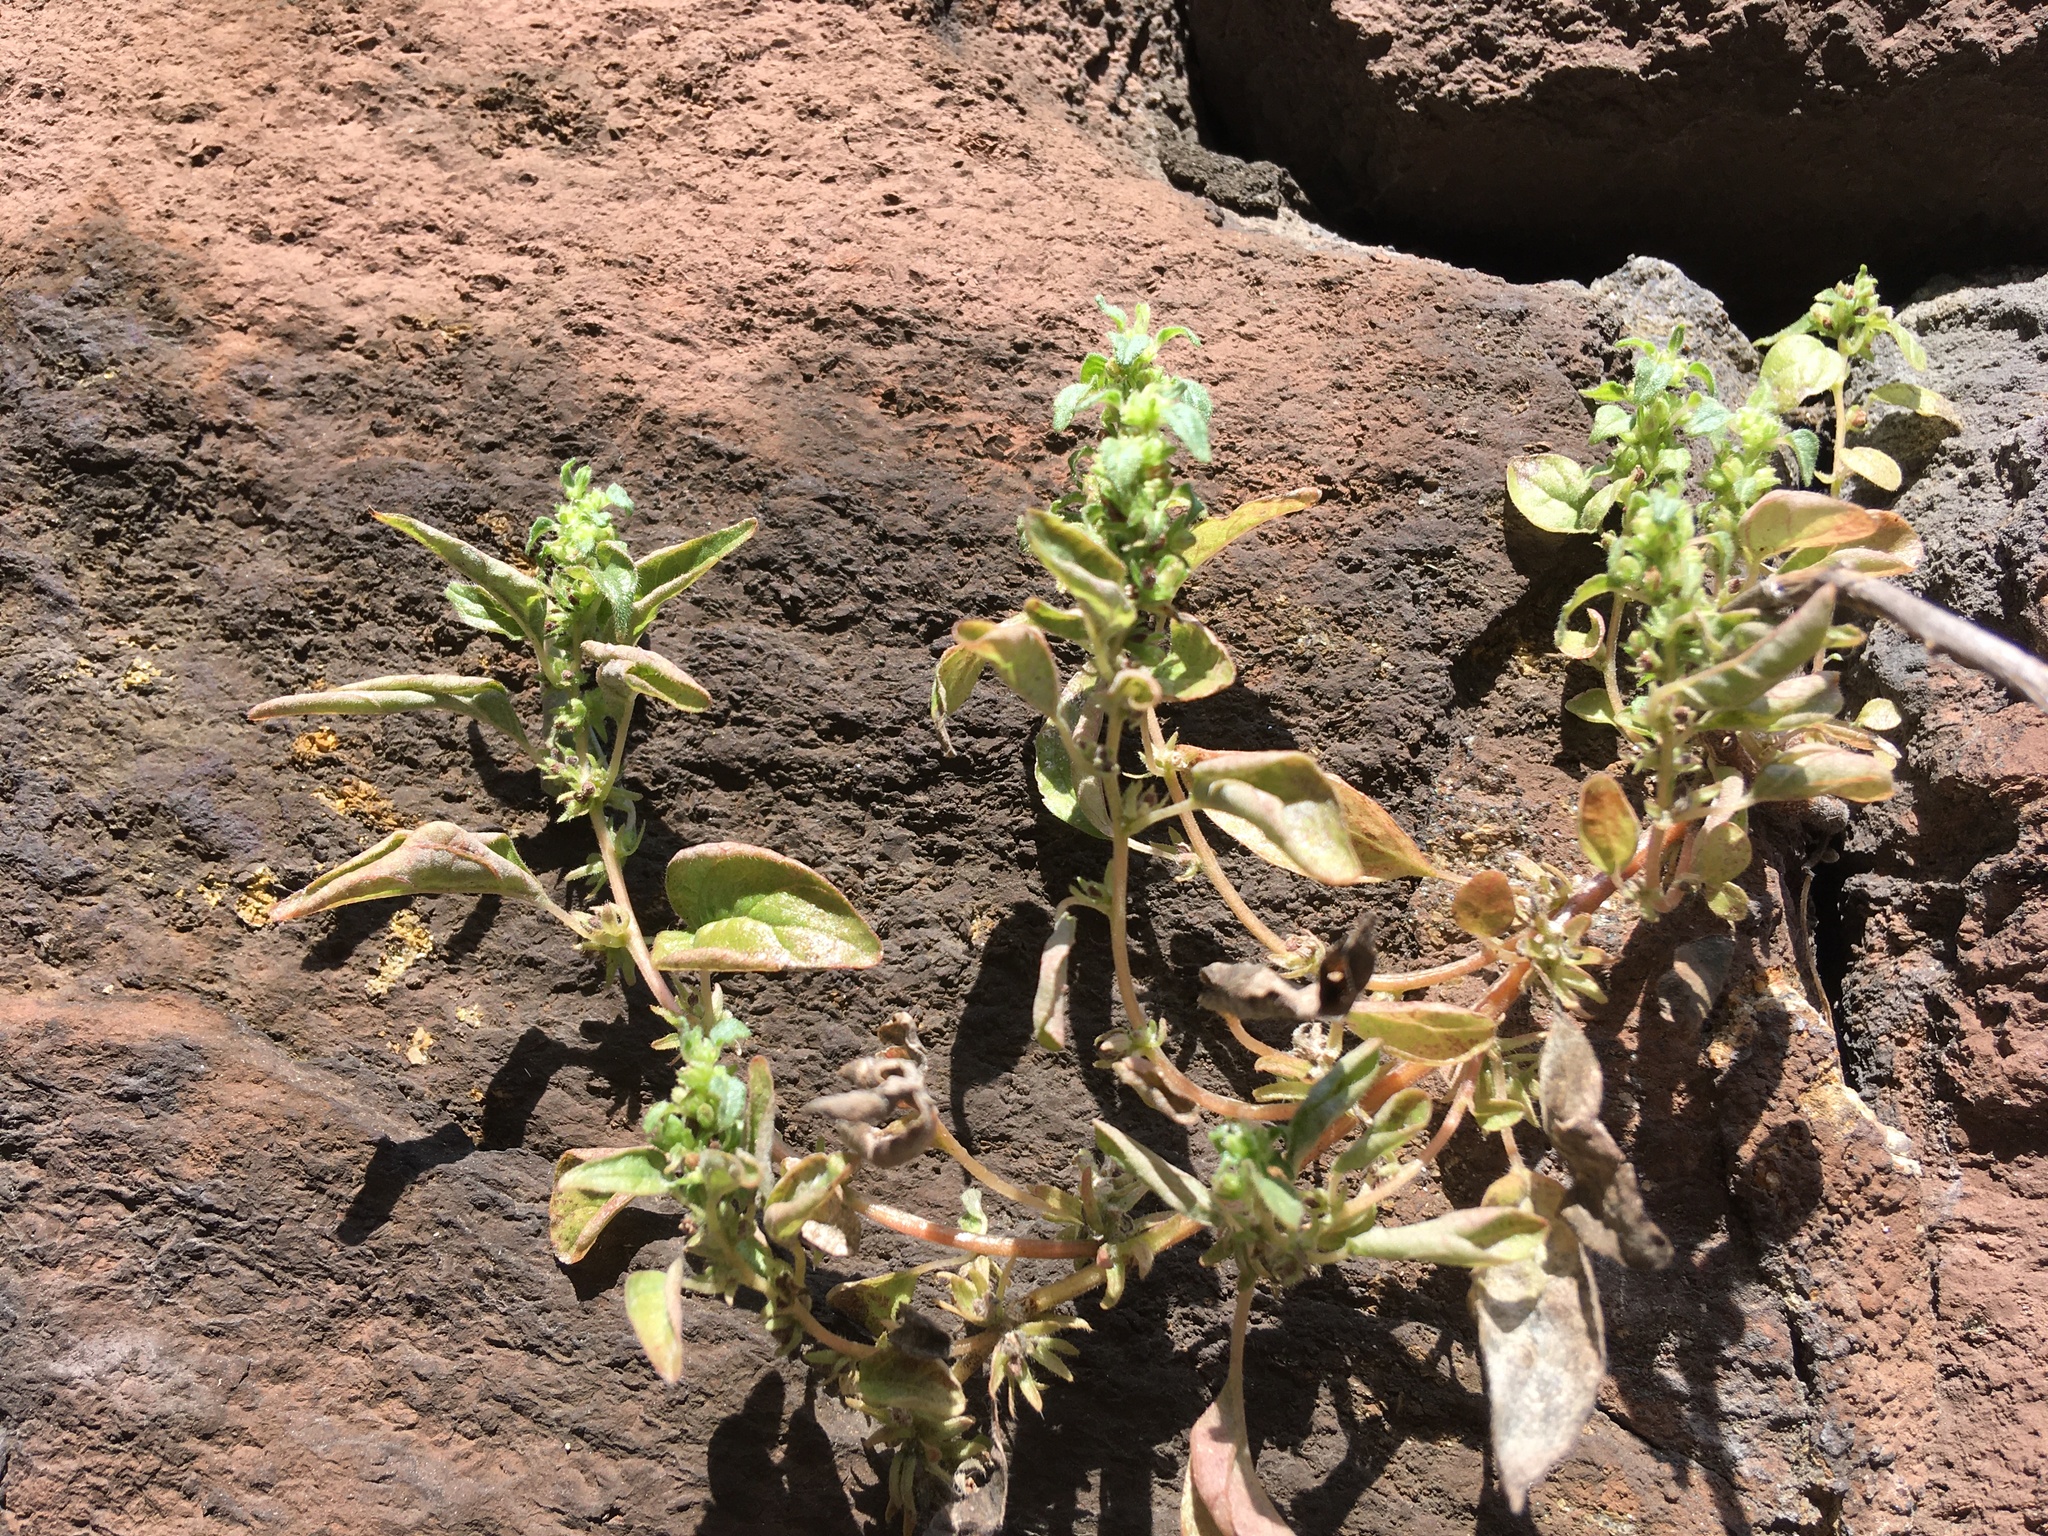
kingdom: Plantae
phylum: Tracheophyta
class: Magnoliopsida
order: Rosales
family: Urticaceae
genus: Parietaria
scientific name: Parietaria pensylvanica
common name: Pennsylvania pellitory
